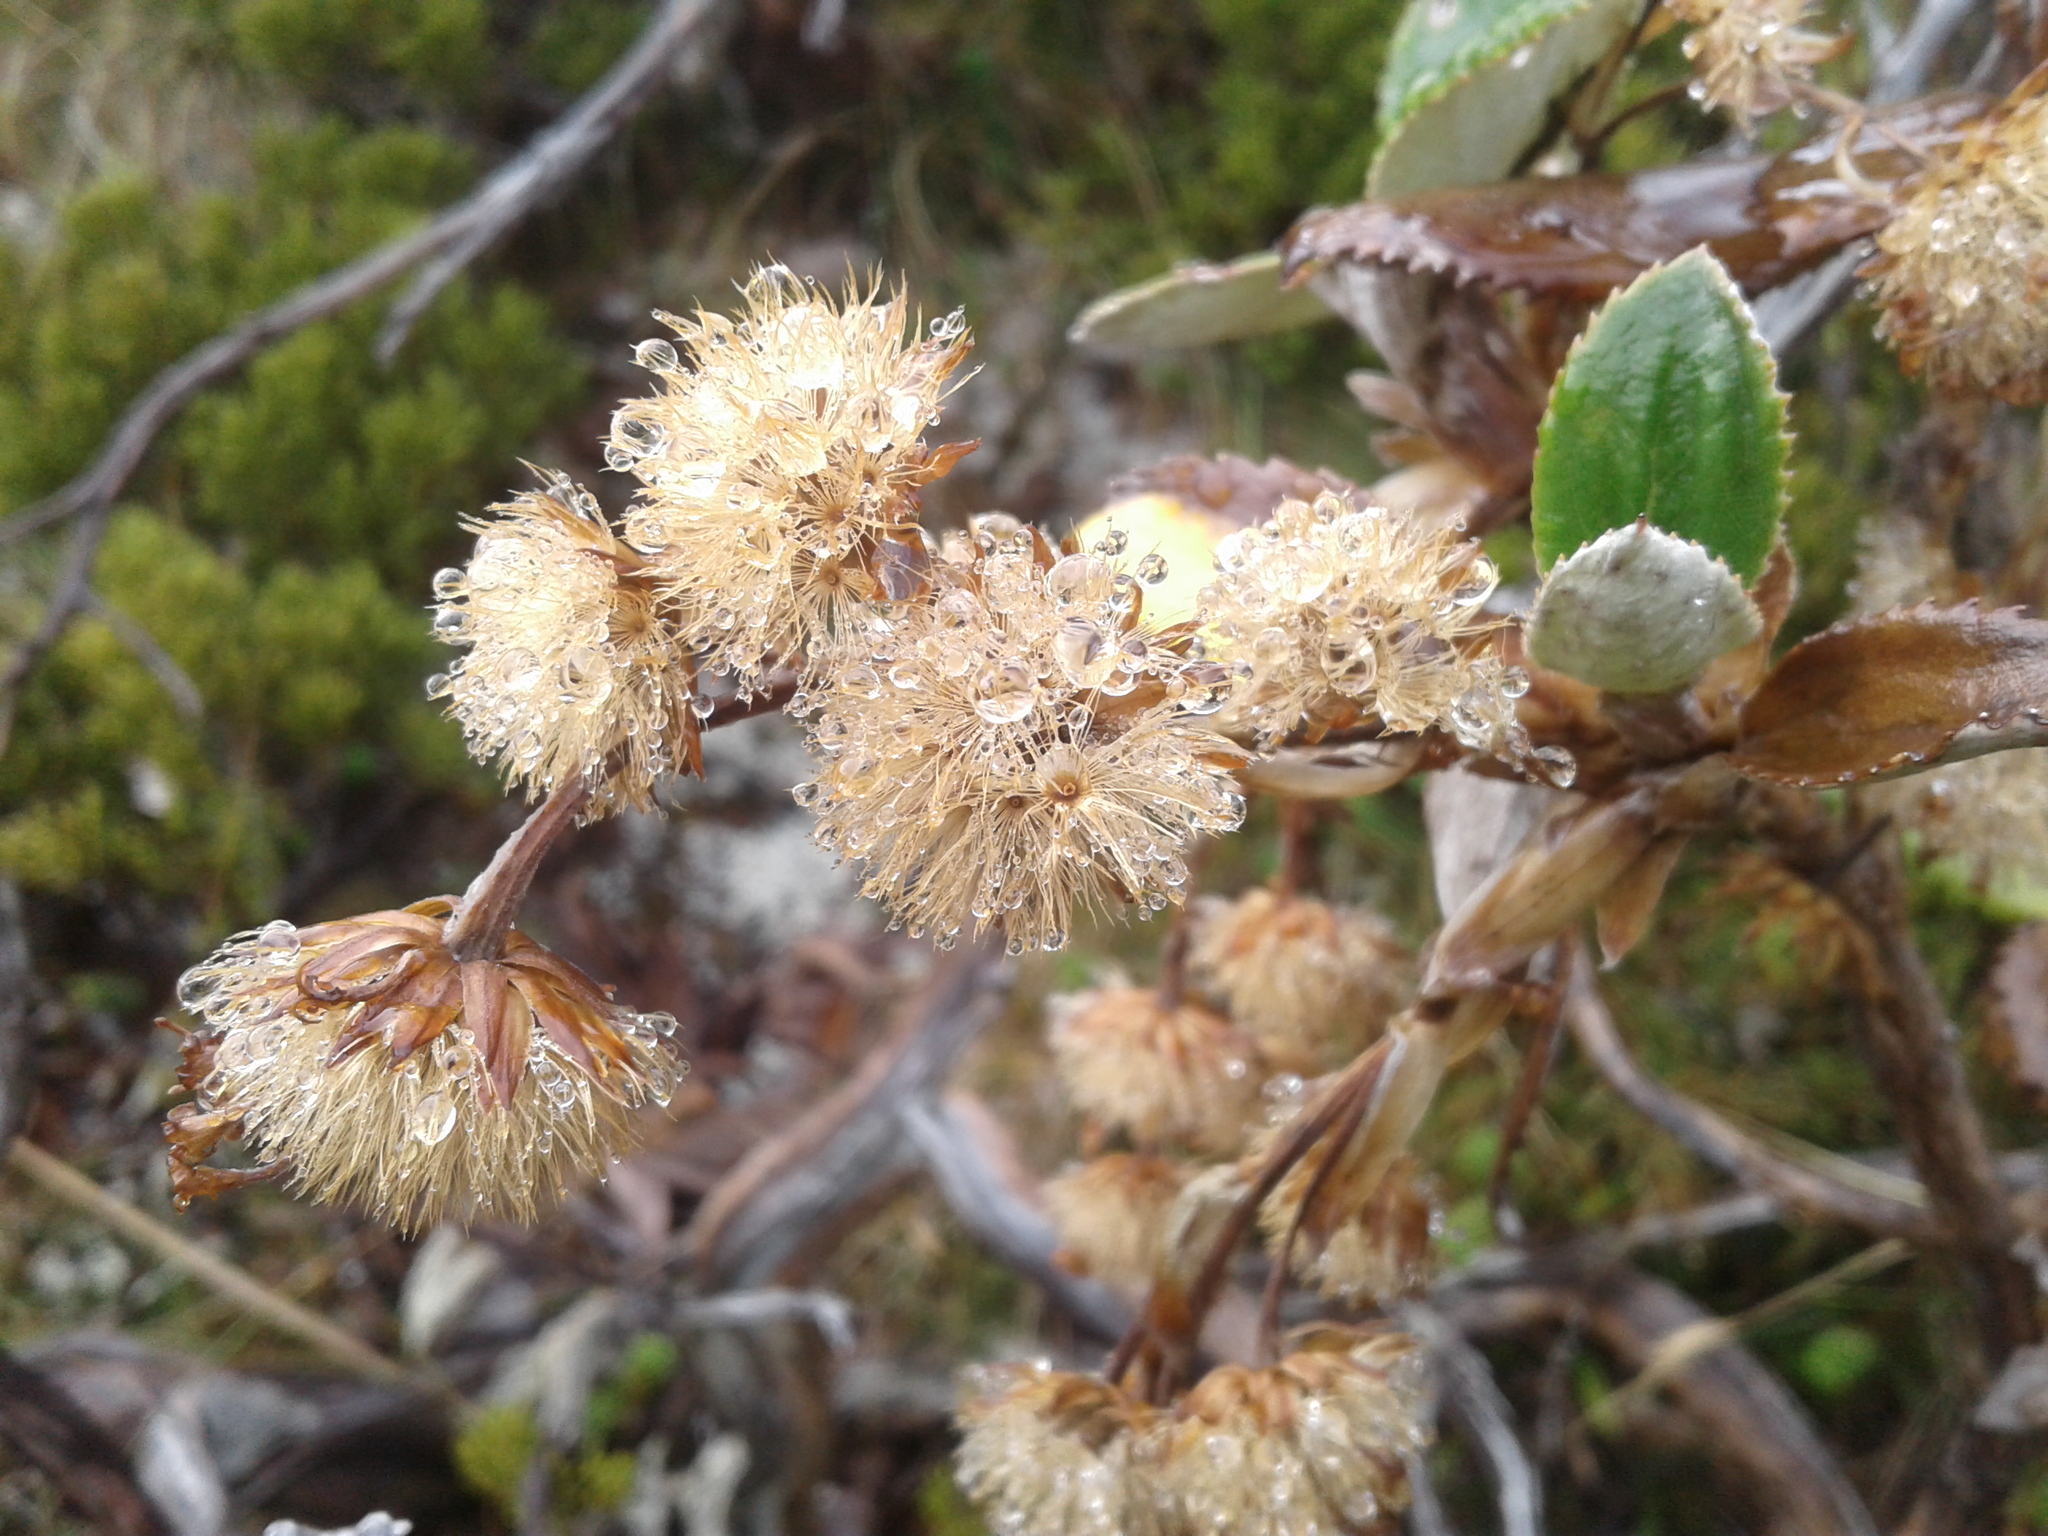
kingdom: Plantae
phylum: Tracheophyta
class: Magnoliopsida
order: Asterales
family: Asteraceae
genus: Macrolearia
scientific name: Macrolearia colensoi
